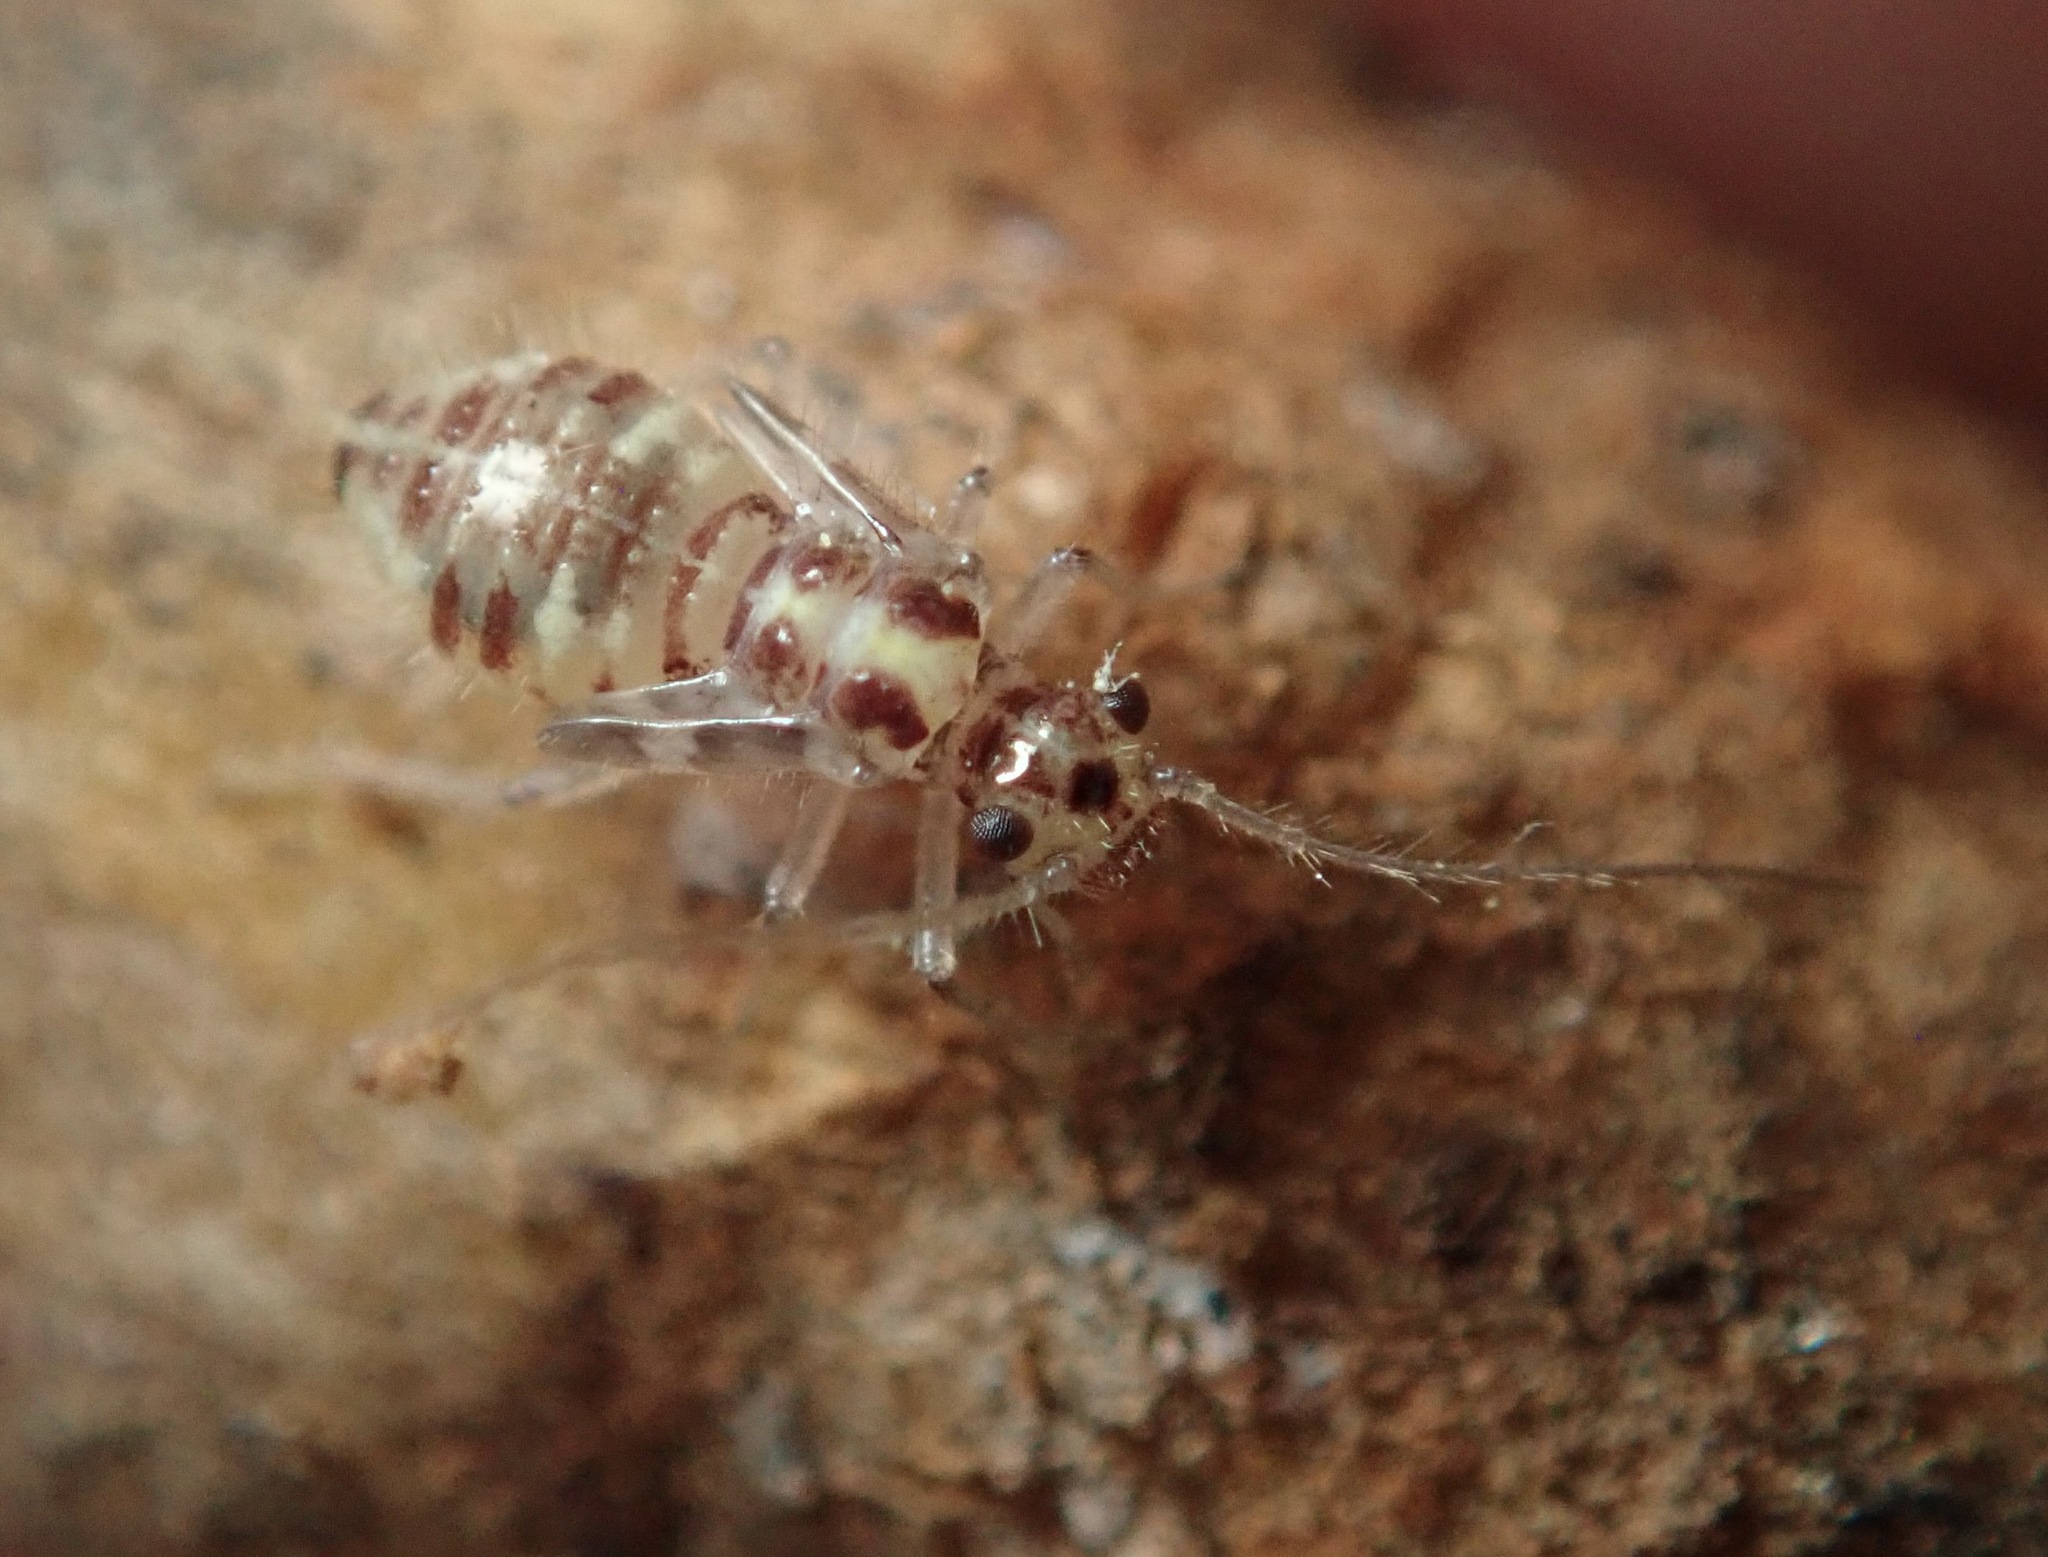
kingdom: Animalia
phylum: Arthropoda
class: Insecta
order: Psocodea
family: Dasydemellidae
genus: Teliapsocus
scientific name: Teliapsocus conterminus
